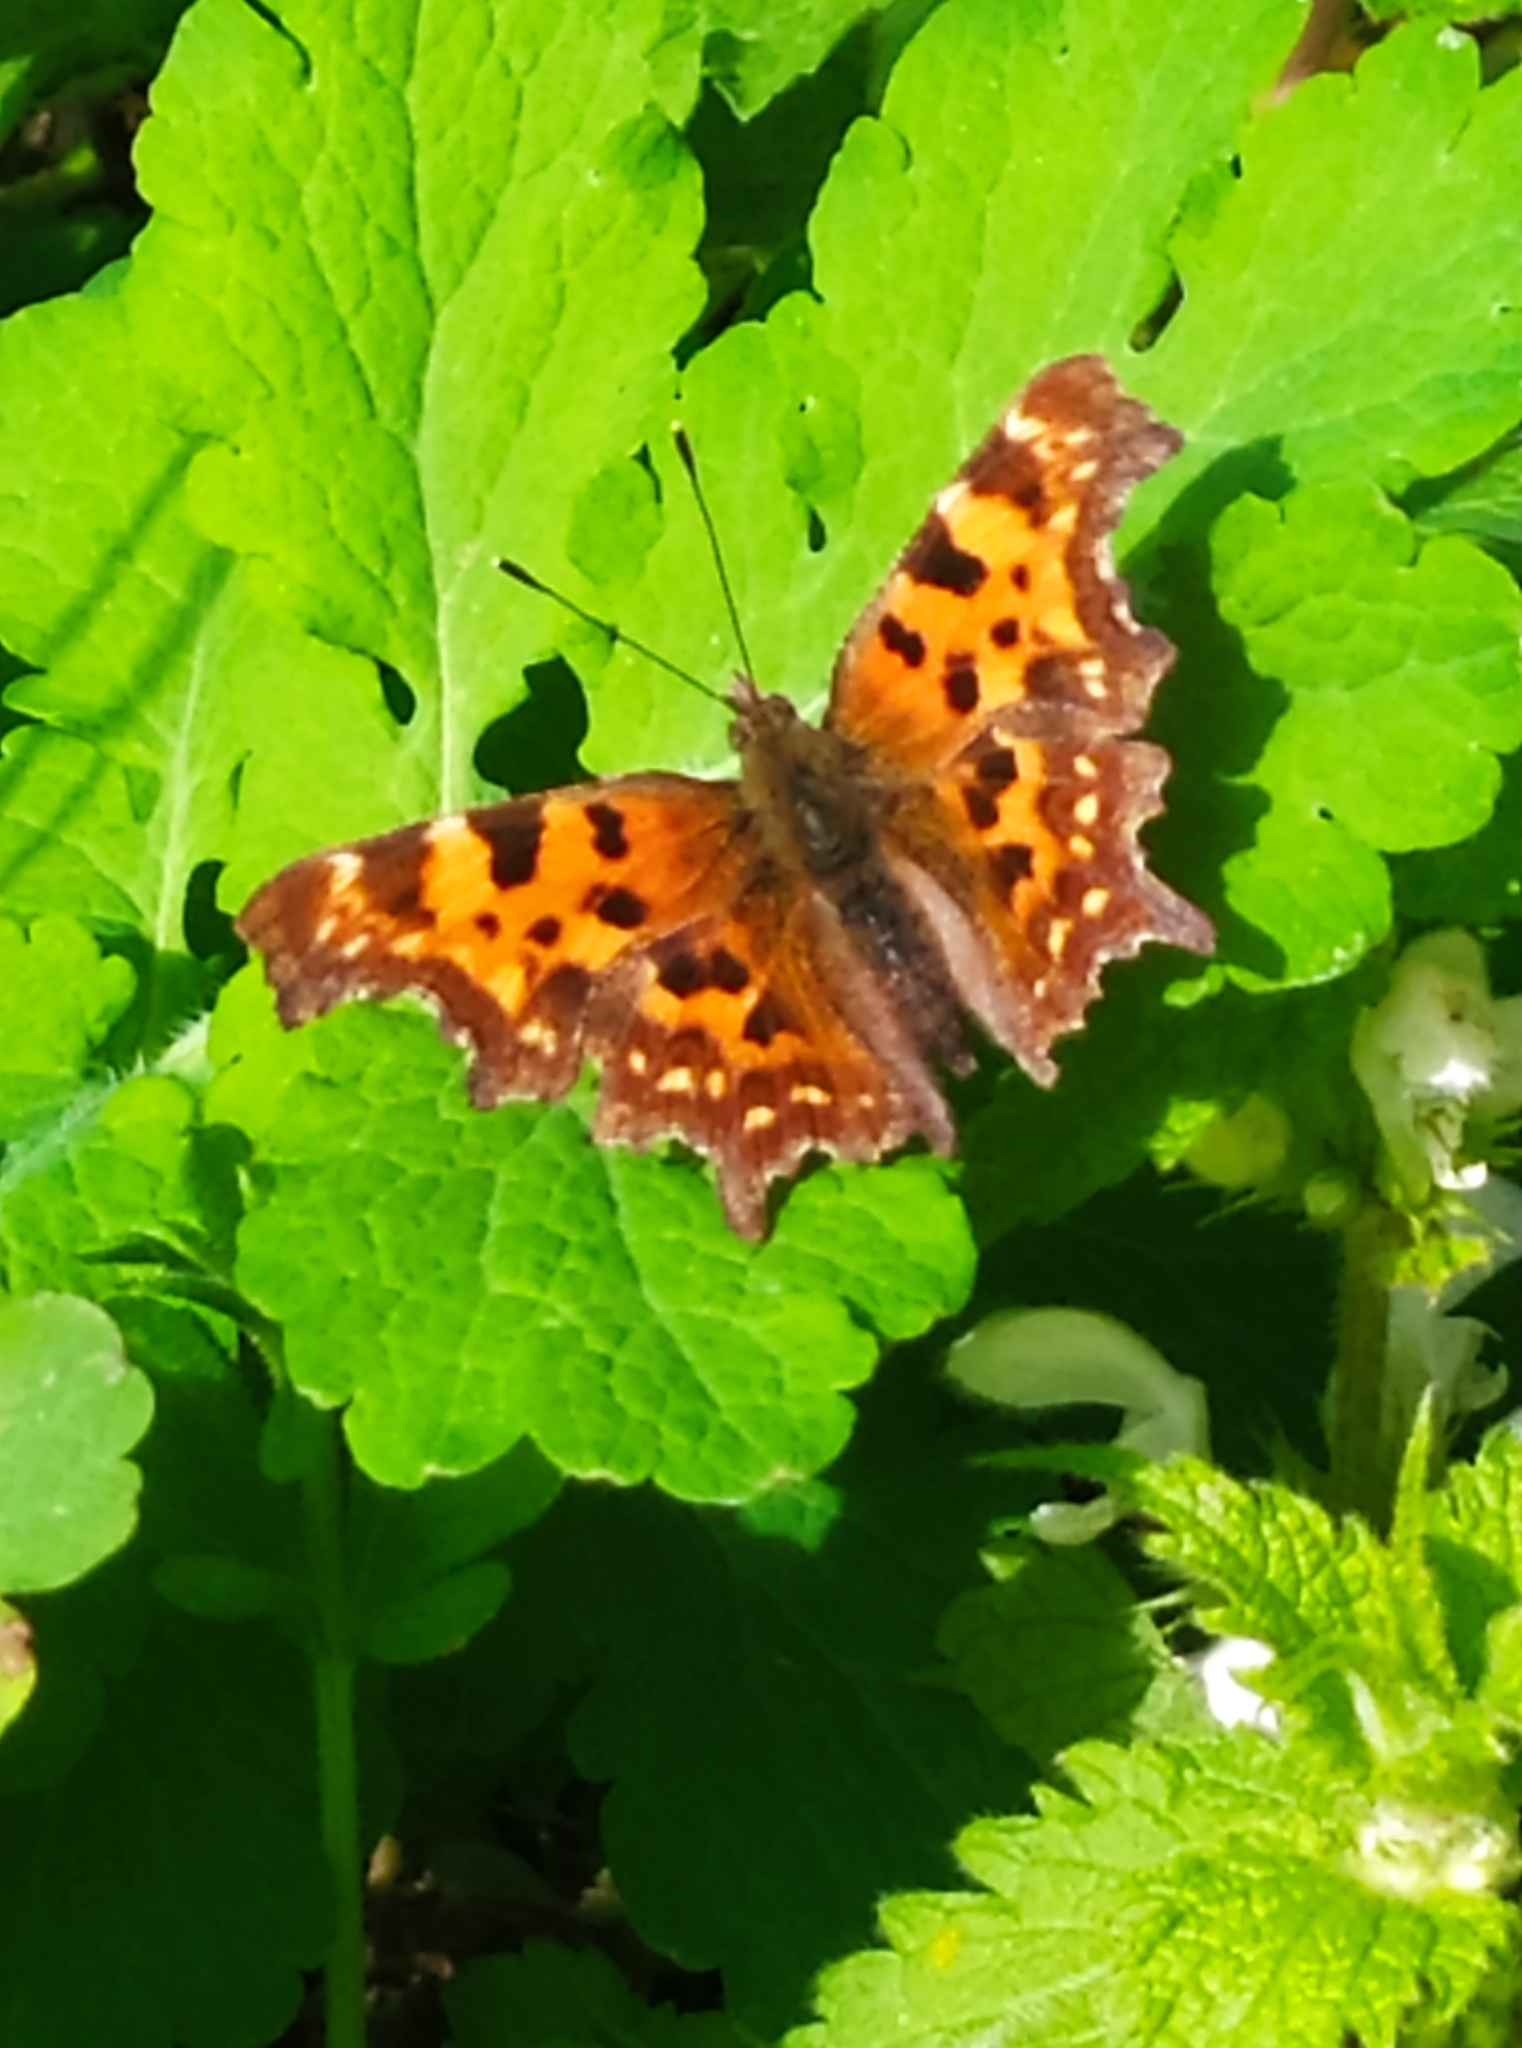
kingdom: Animalia
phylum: Arthropoda
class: Insecta
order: Lepidoptera
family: Nymphalidae
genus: Polygonia
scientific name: Polygonia c-album
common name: Comma
